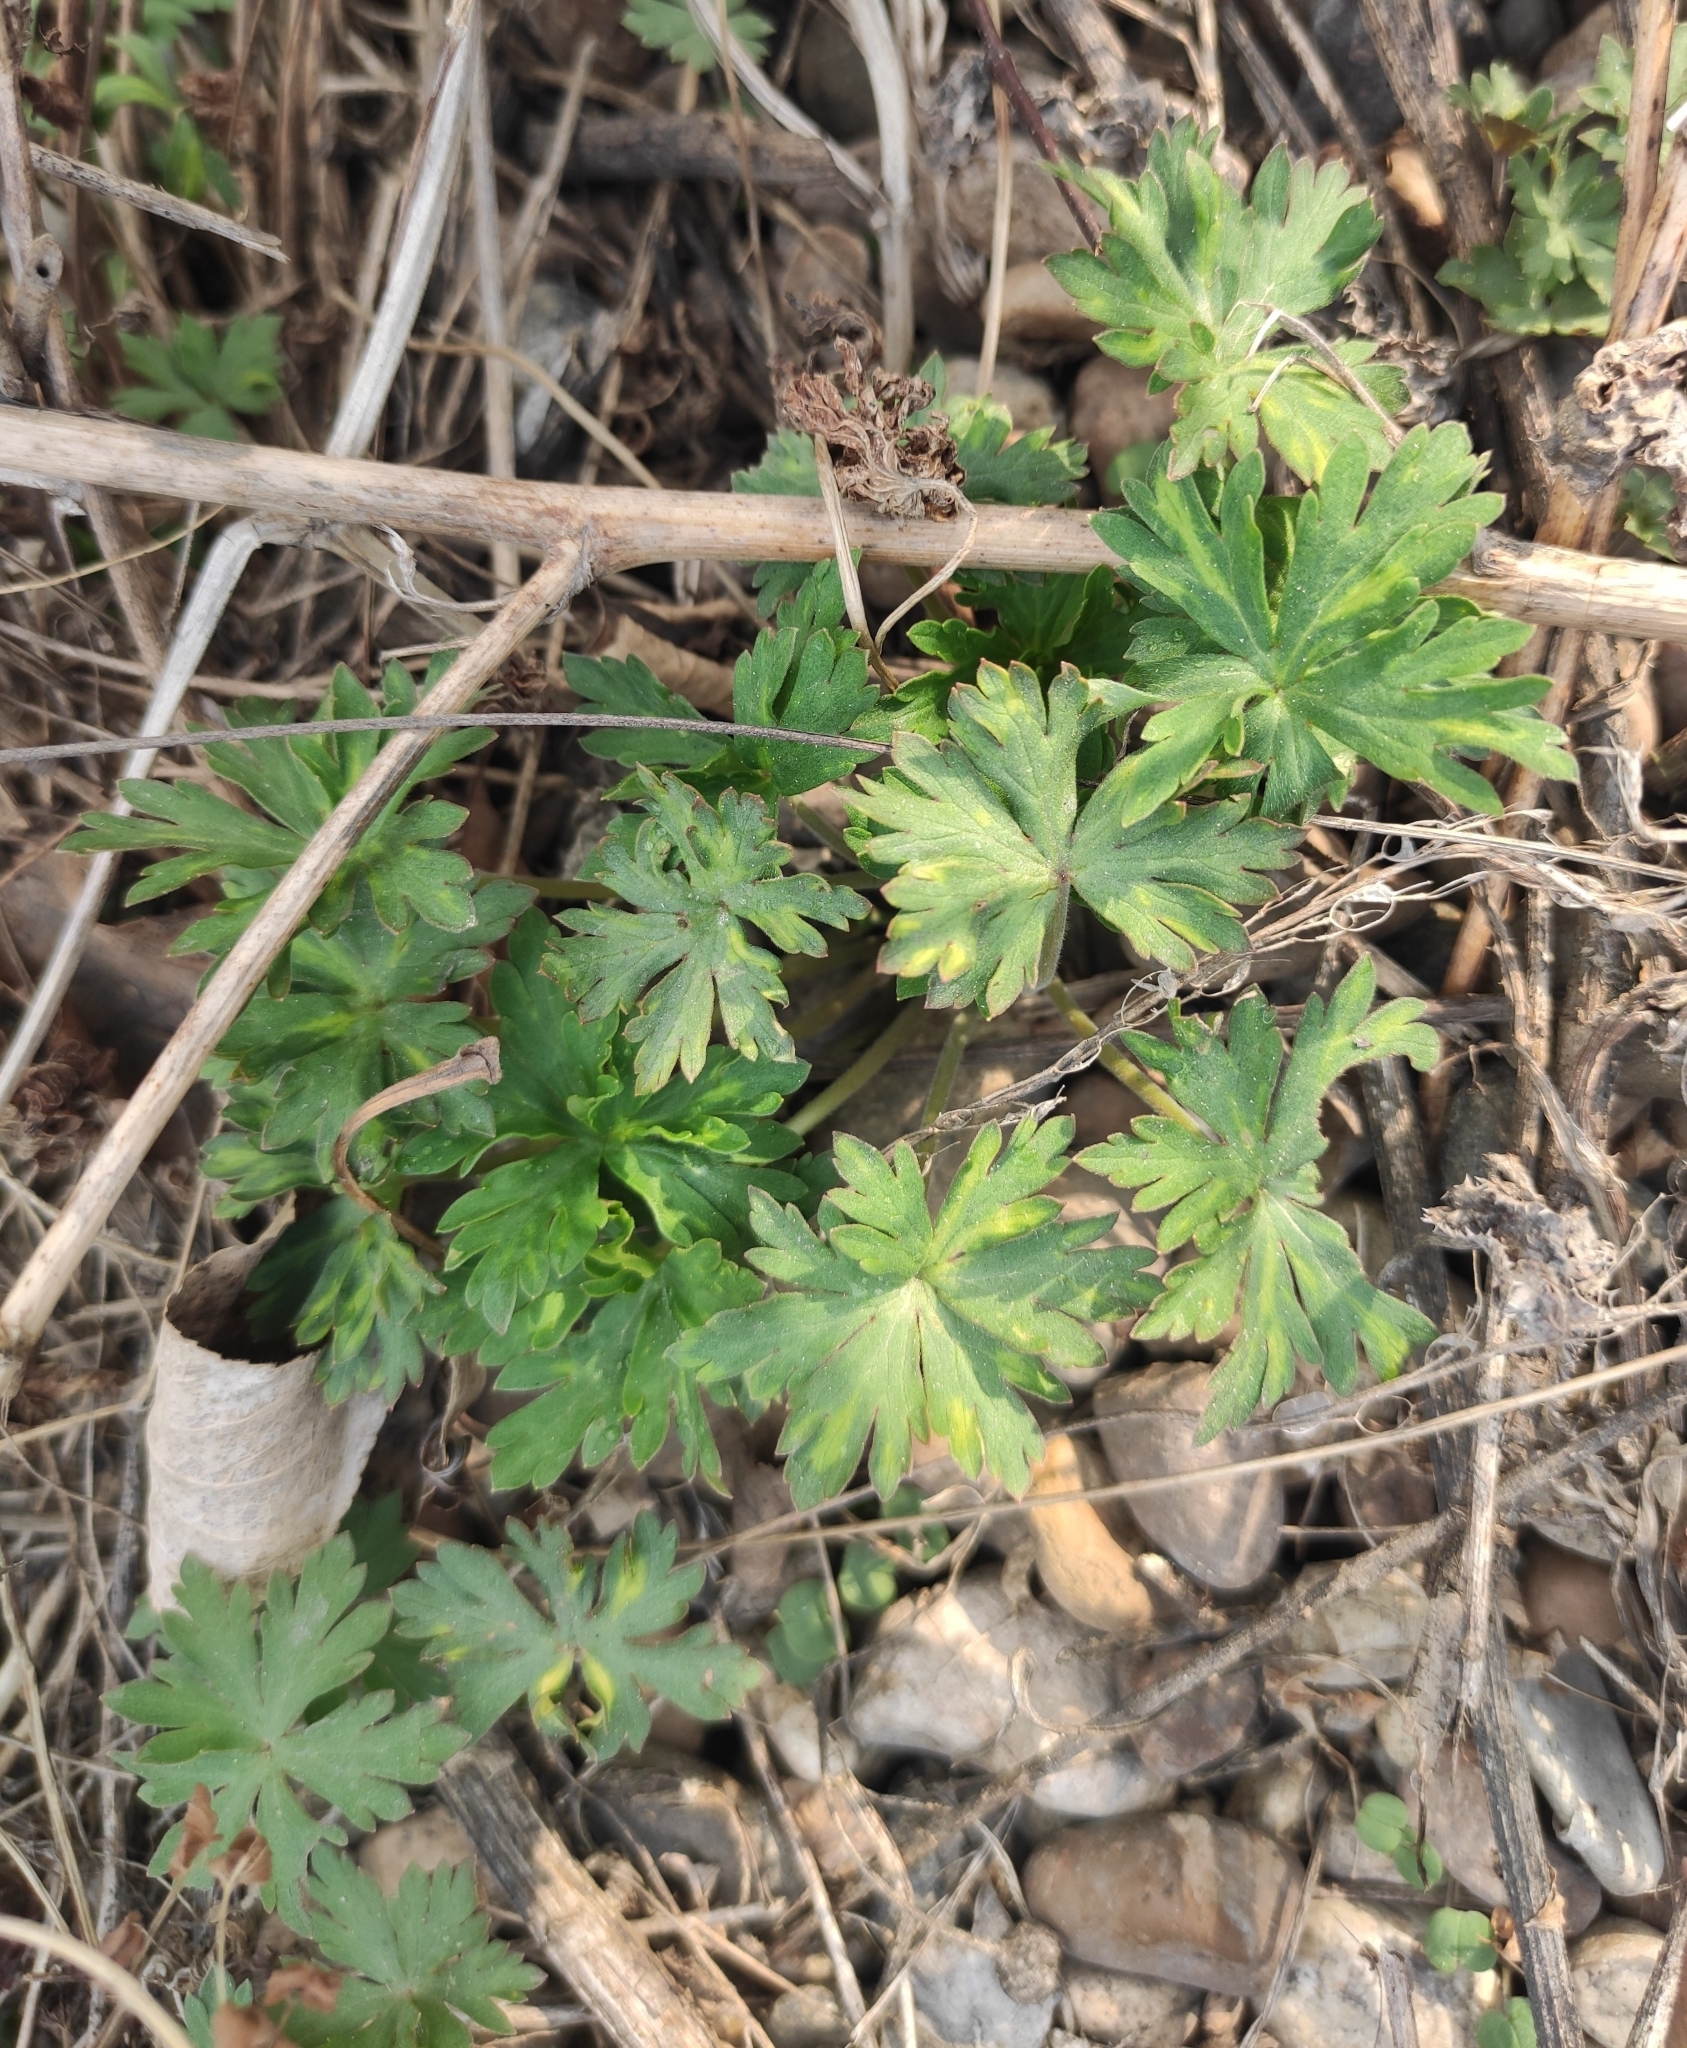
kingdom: Plantae
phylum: Tracheophyta
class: Magnoliopsida
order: Geraniales
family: Geraniaceae
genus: Geranium
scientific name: Geranium sibiricum
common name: Siberian crane's-bill
